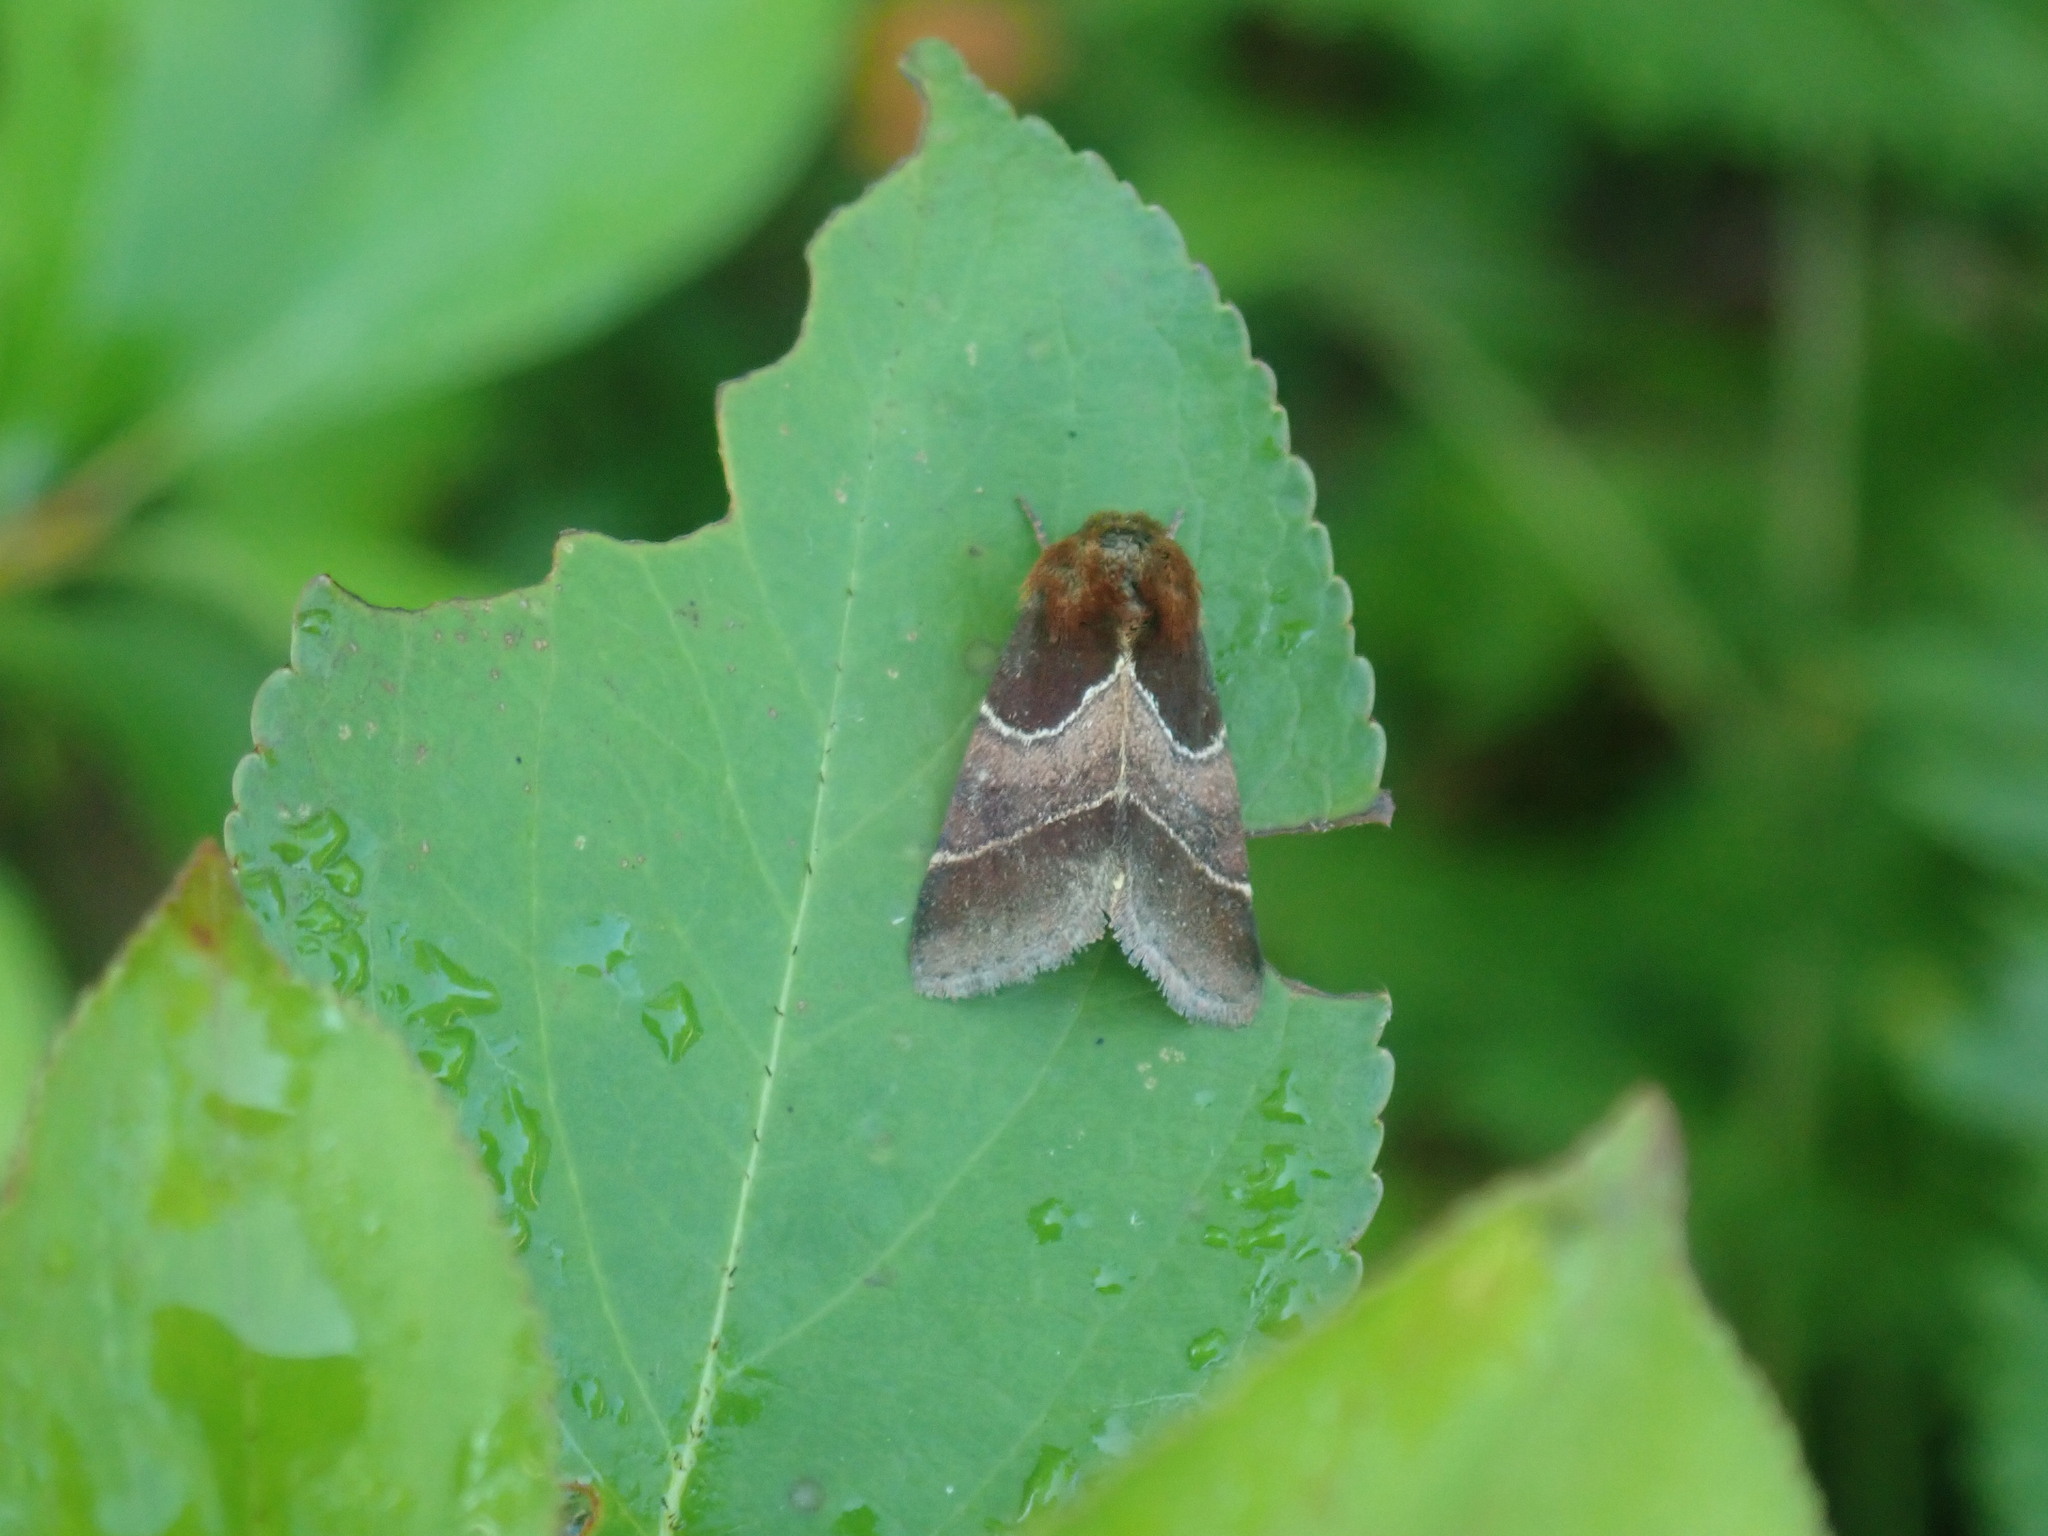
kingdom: Animalia
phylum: Arthropoda
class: Insecta
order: Lepidoptera
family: Noctuidae
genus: Schinia
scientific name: Schinia arcigera
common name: Arcigera flower moth
